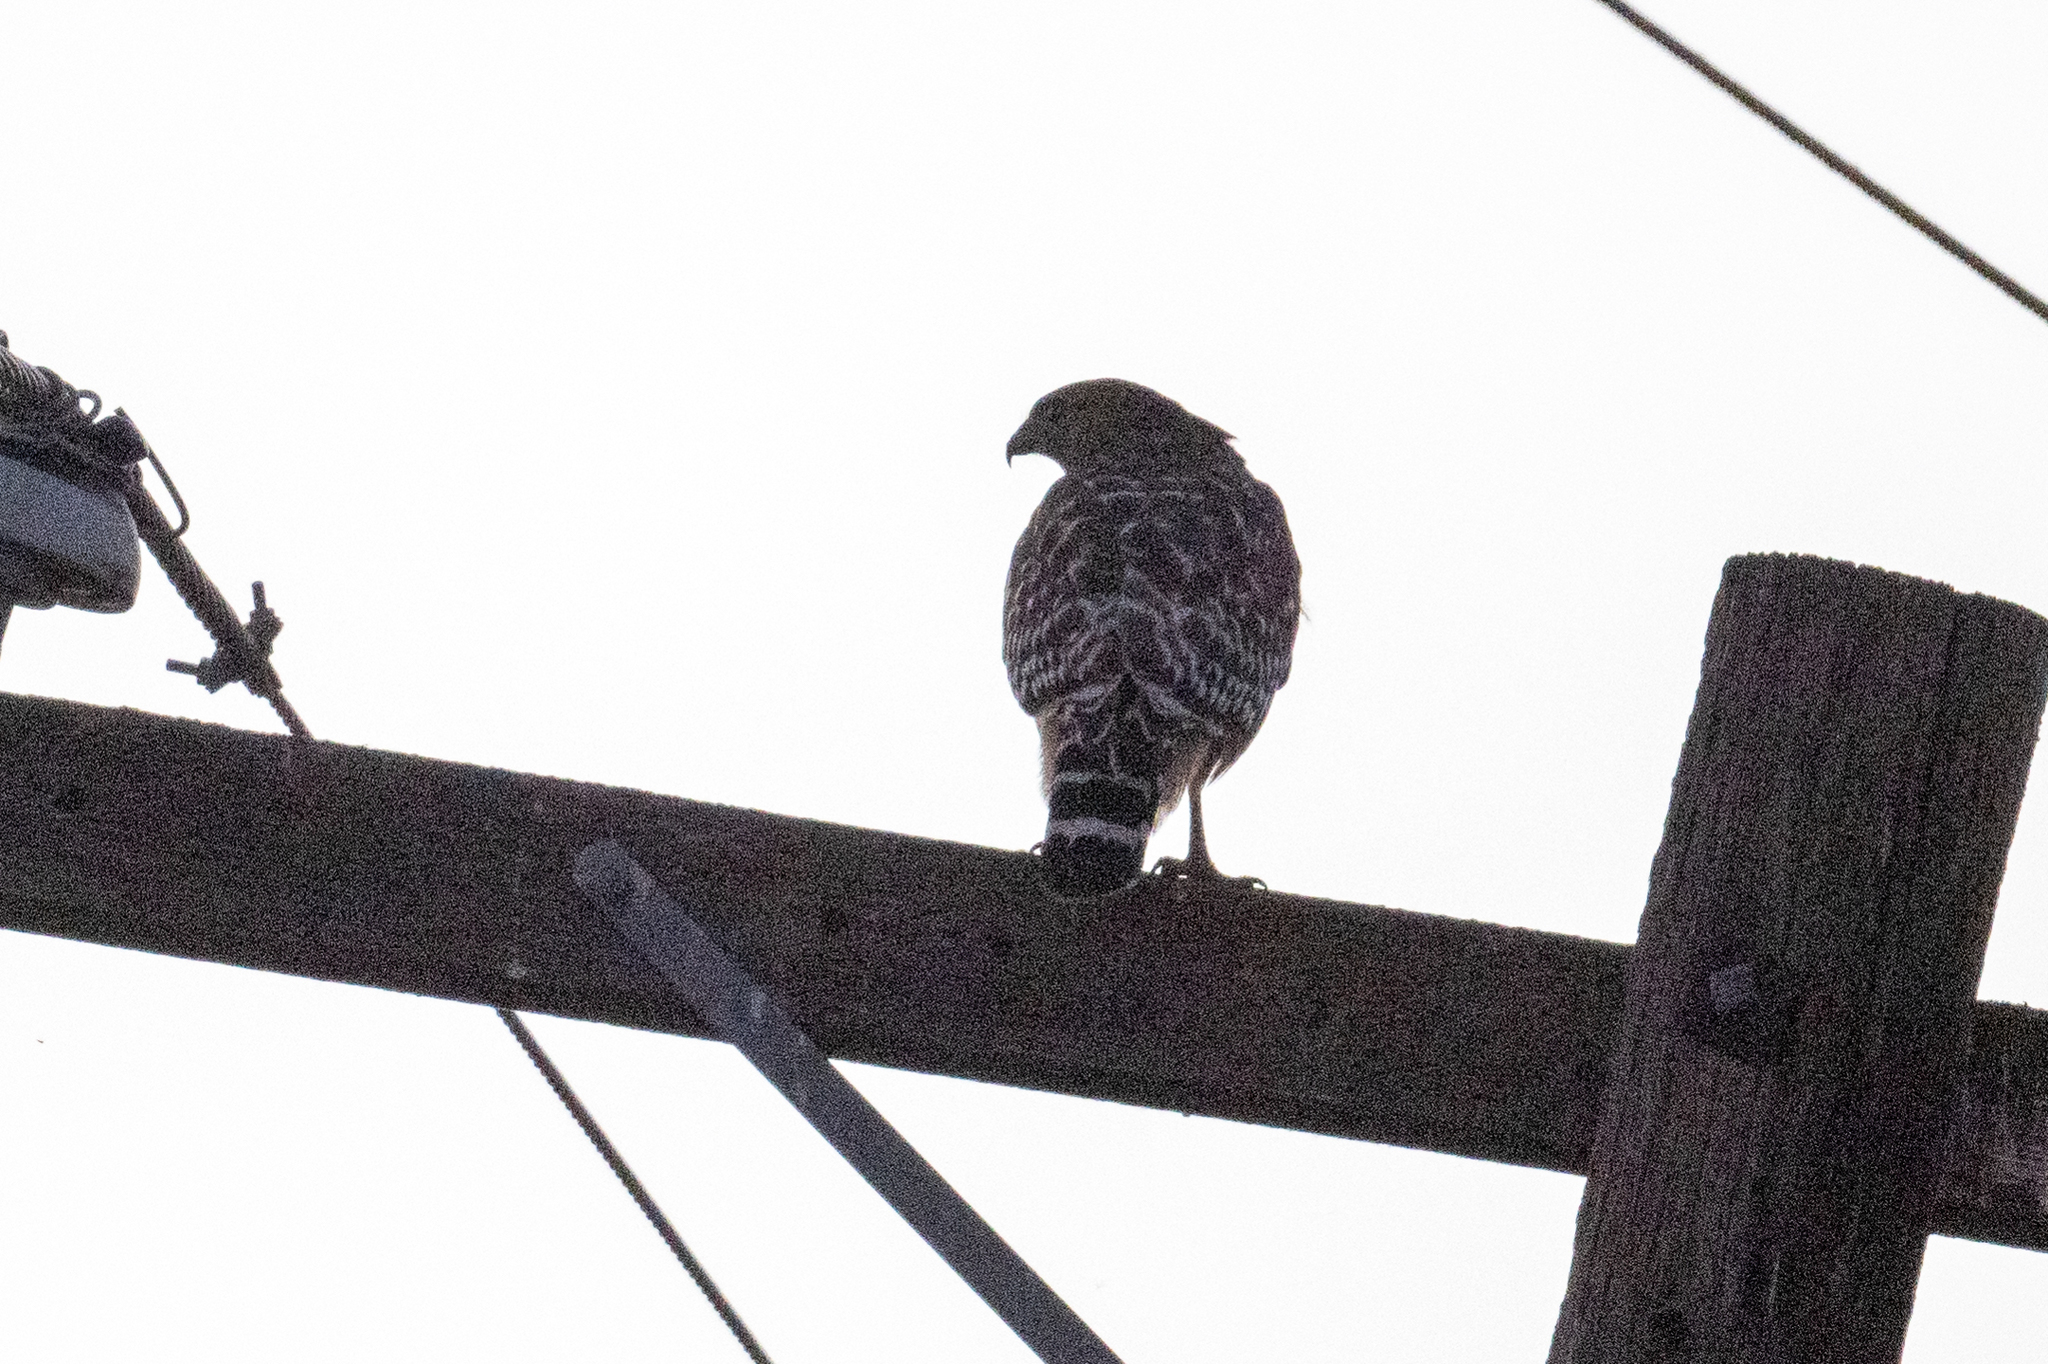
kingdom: Animalia
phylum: Chordata
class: Aves
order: Accipitriformes
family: Accipitridae
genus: Buteo
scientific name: Buteo lineatus
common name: Red-shouldered hawk
